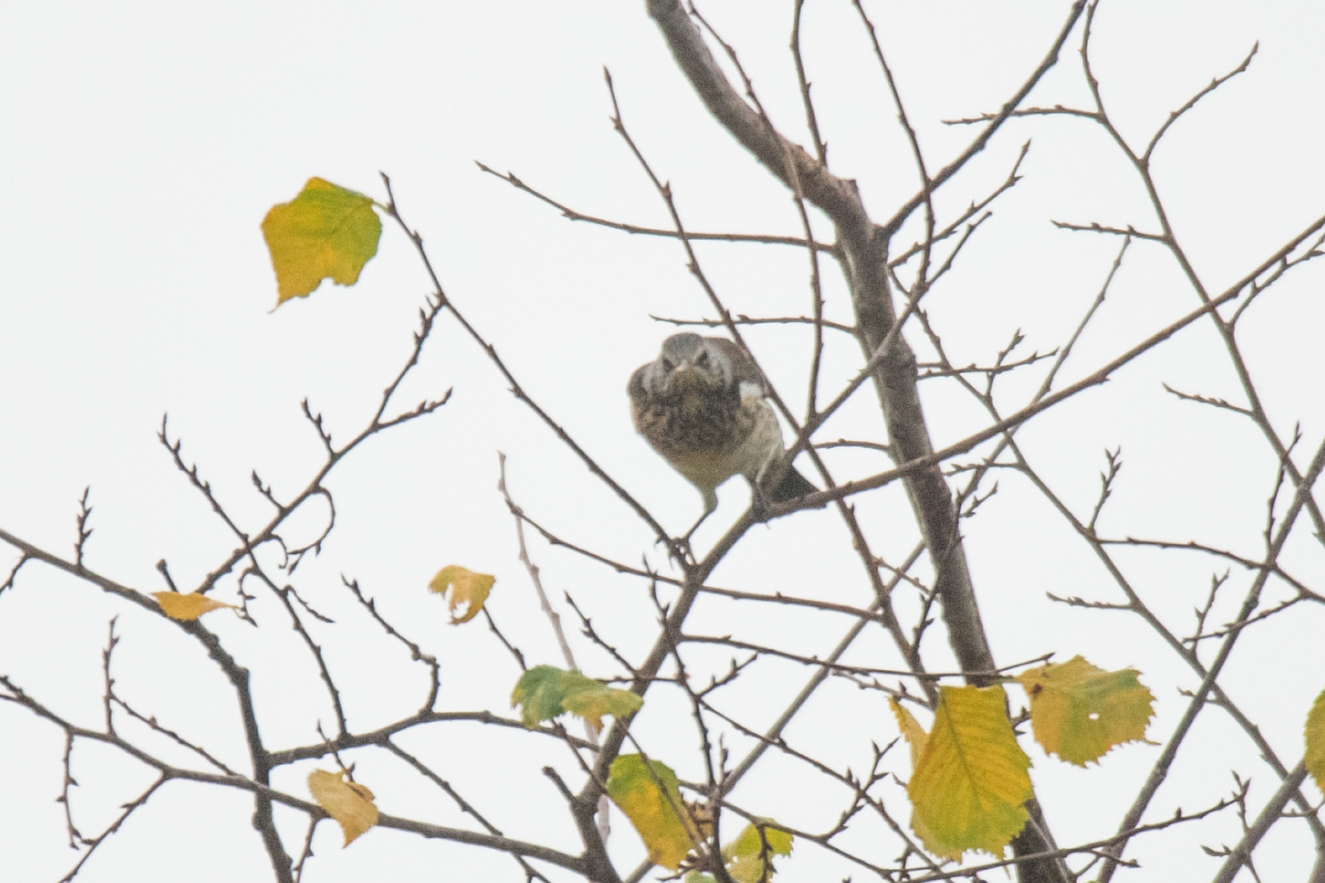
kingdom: Animalia
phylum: Chordata
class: Aves
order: Passeriformes
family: Turdidae
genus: Turdus
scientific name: Turdus pilaris
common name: Fieldfare
